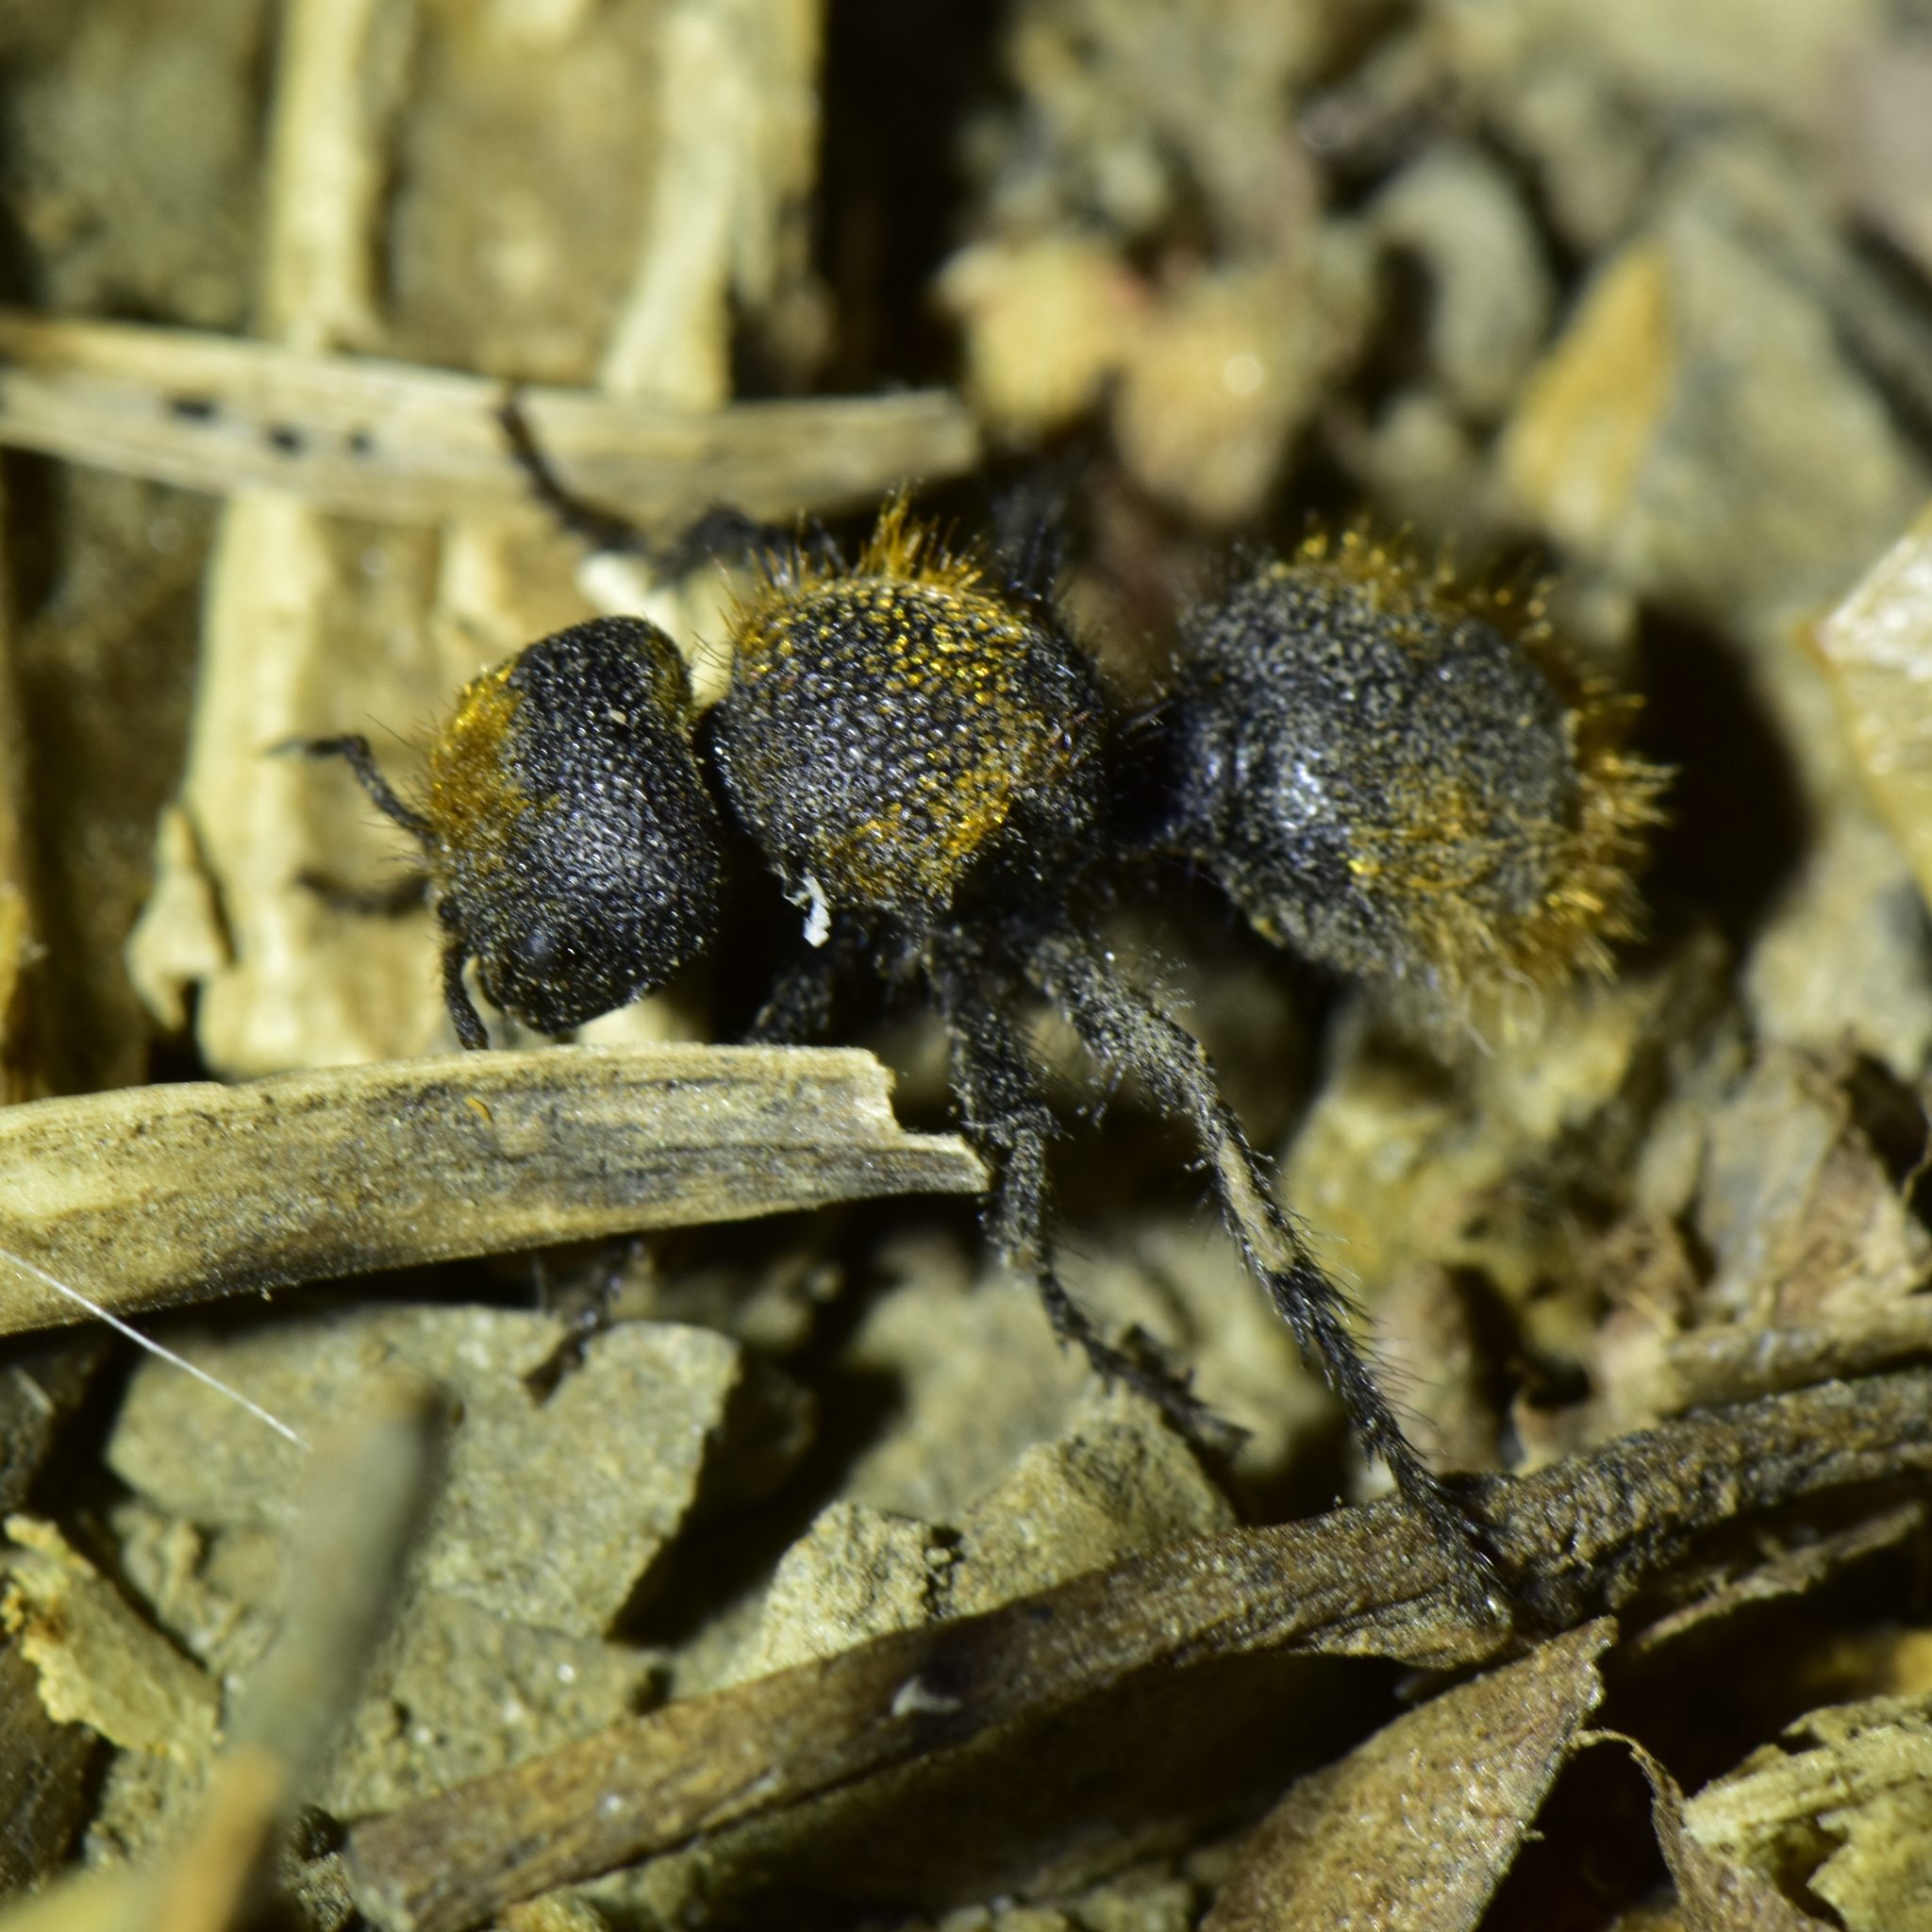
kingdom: Animalia
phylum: Arthropoda
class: Insecta
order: Hymenoptera
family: Mutillidae
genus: Dasymutilla
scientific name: Dasymutilla
